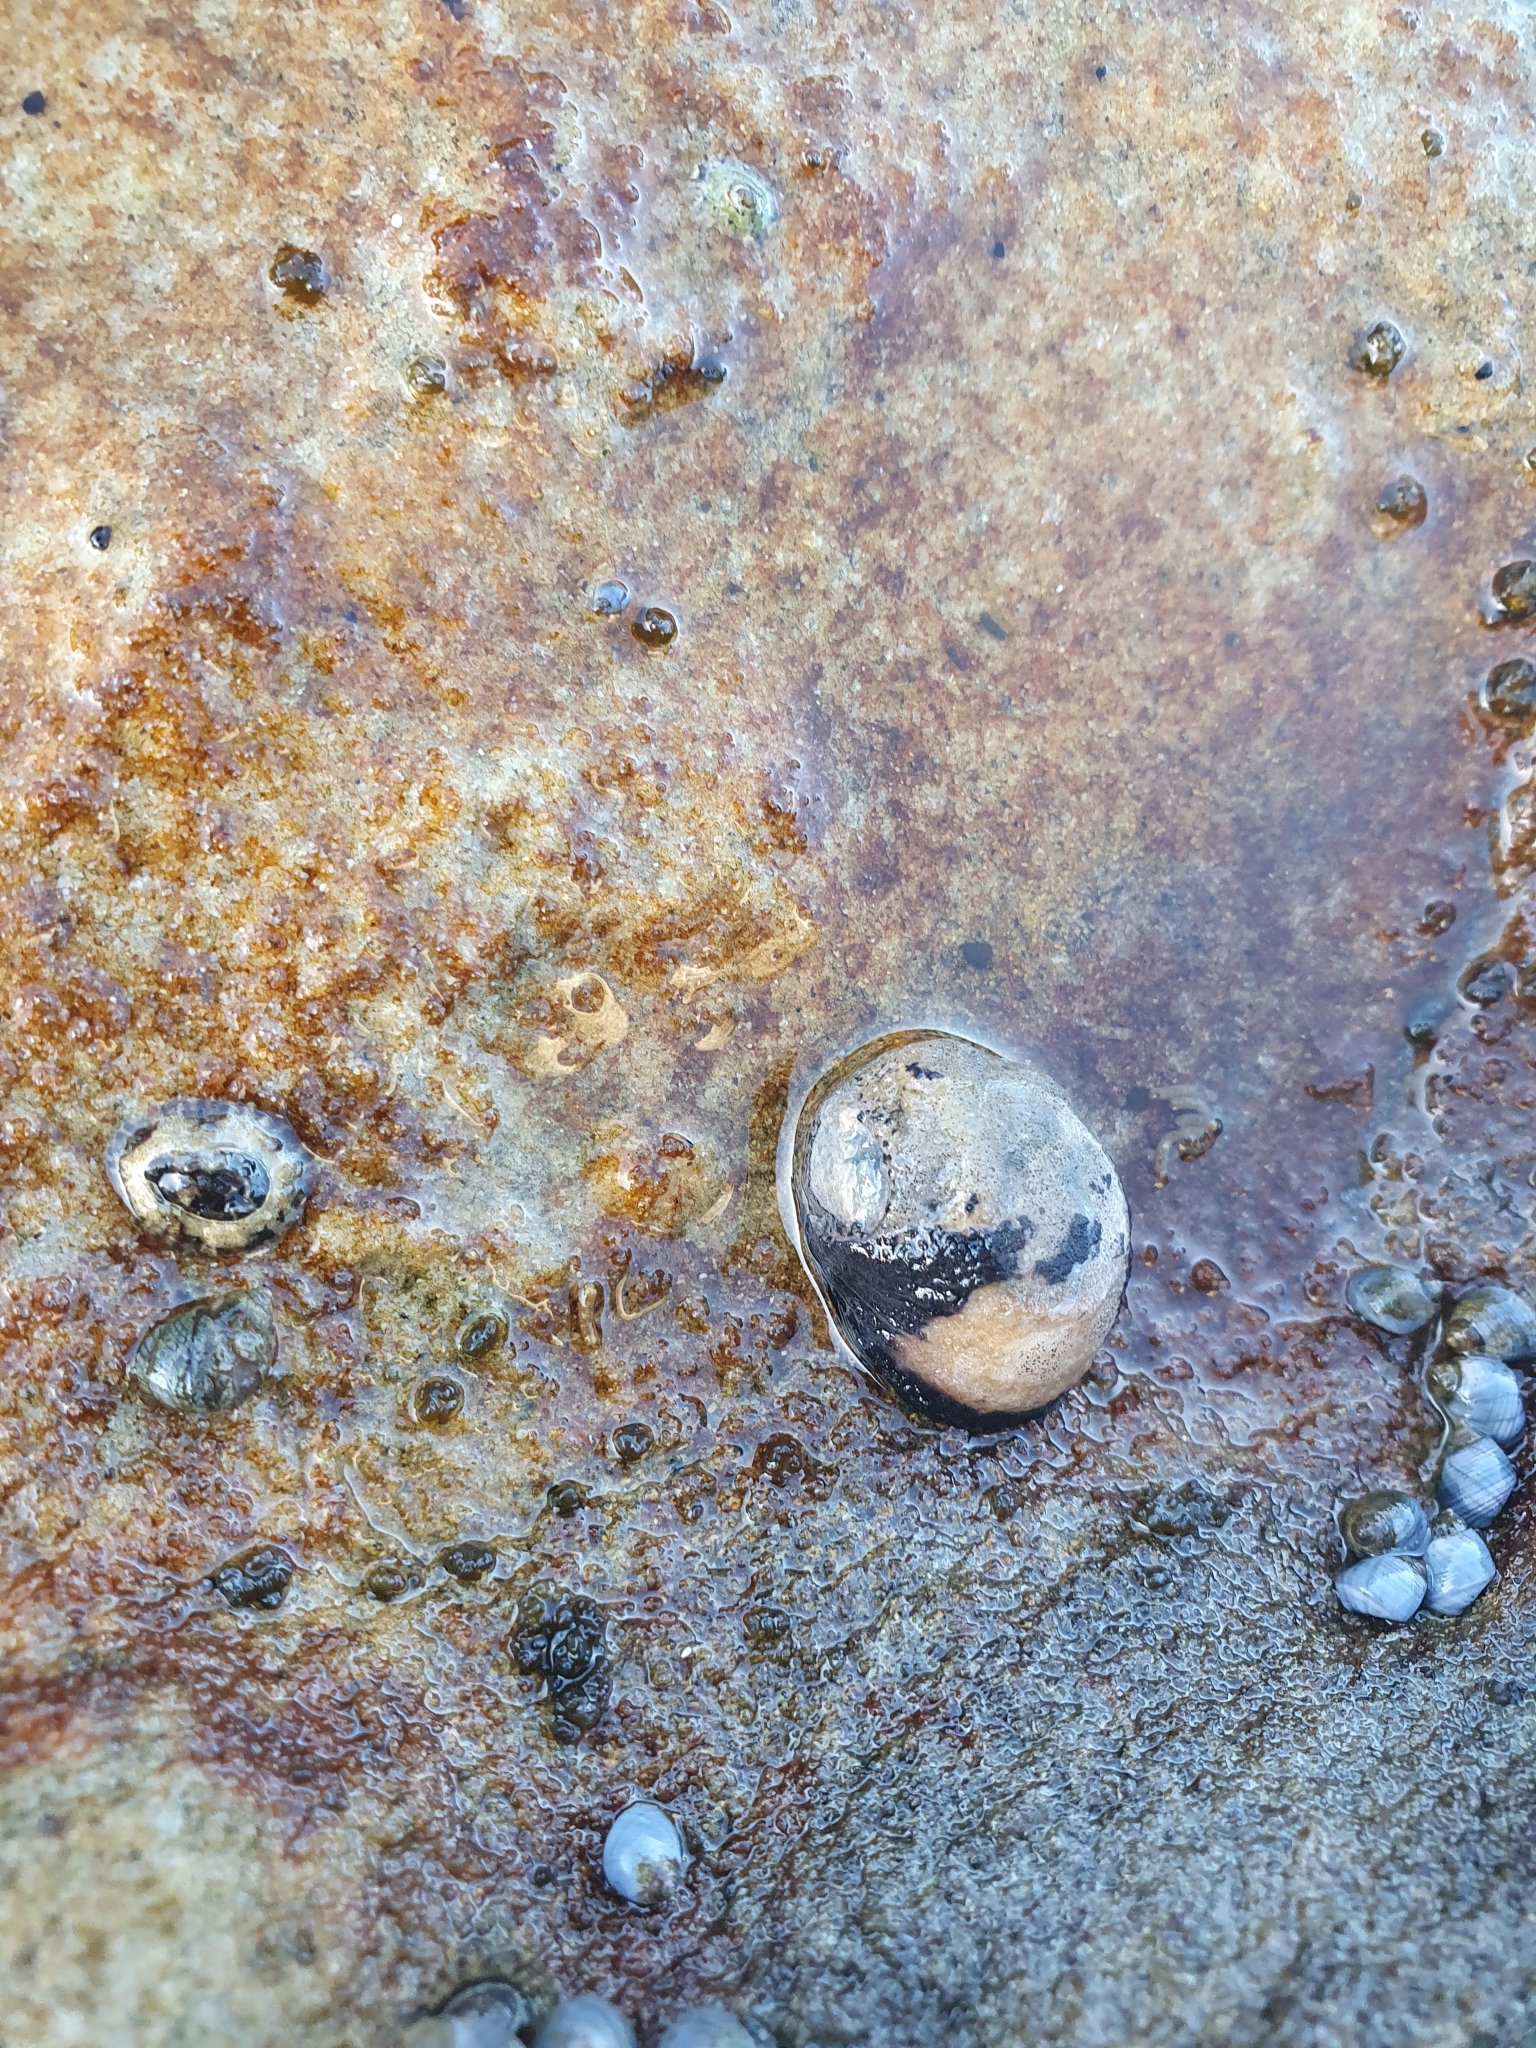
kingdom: Animalia
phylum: Mollusca
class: Gastropoda
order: Cycloneritida
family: Neritidae
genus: Nerita
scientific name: Nerita melanotragus
